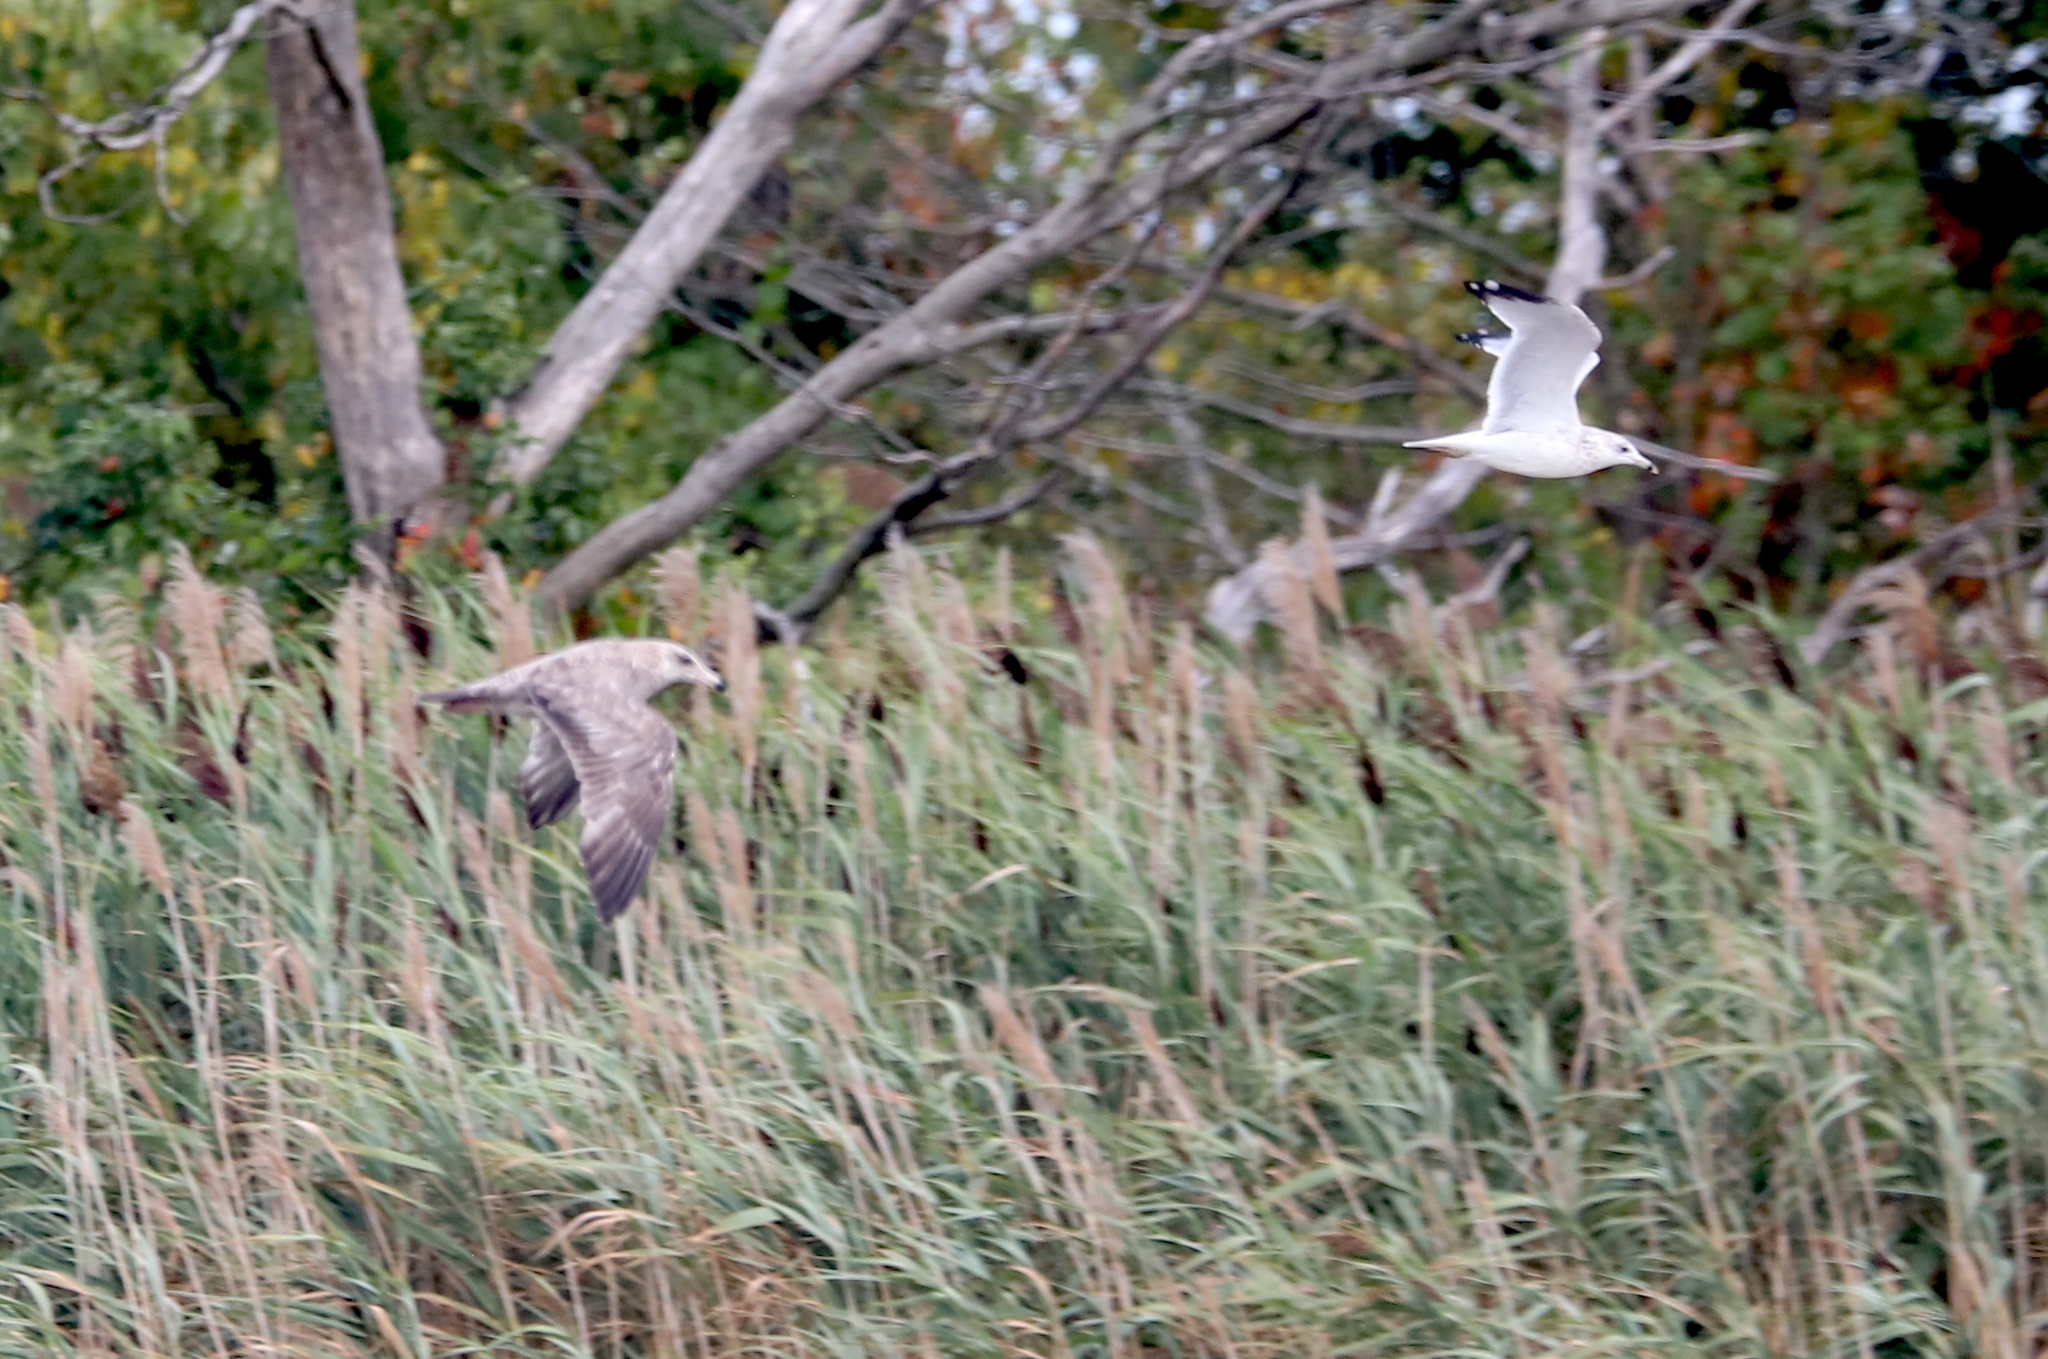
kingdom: Animalia
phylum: Chordata
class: Aves
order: Charadriiformes
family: Laridae
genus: Larus
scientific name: Larus delawarensis
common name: Ring-billed gull
